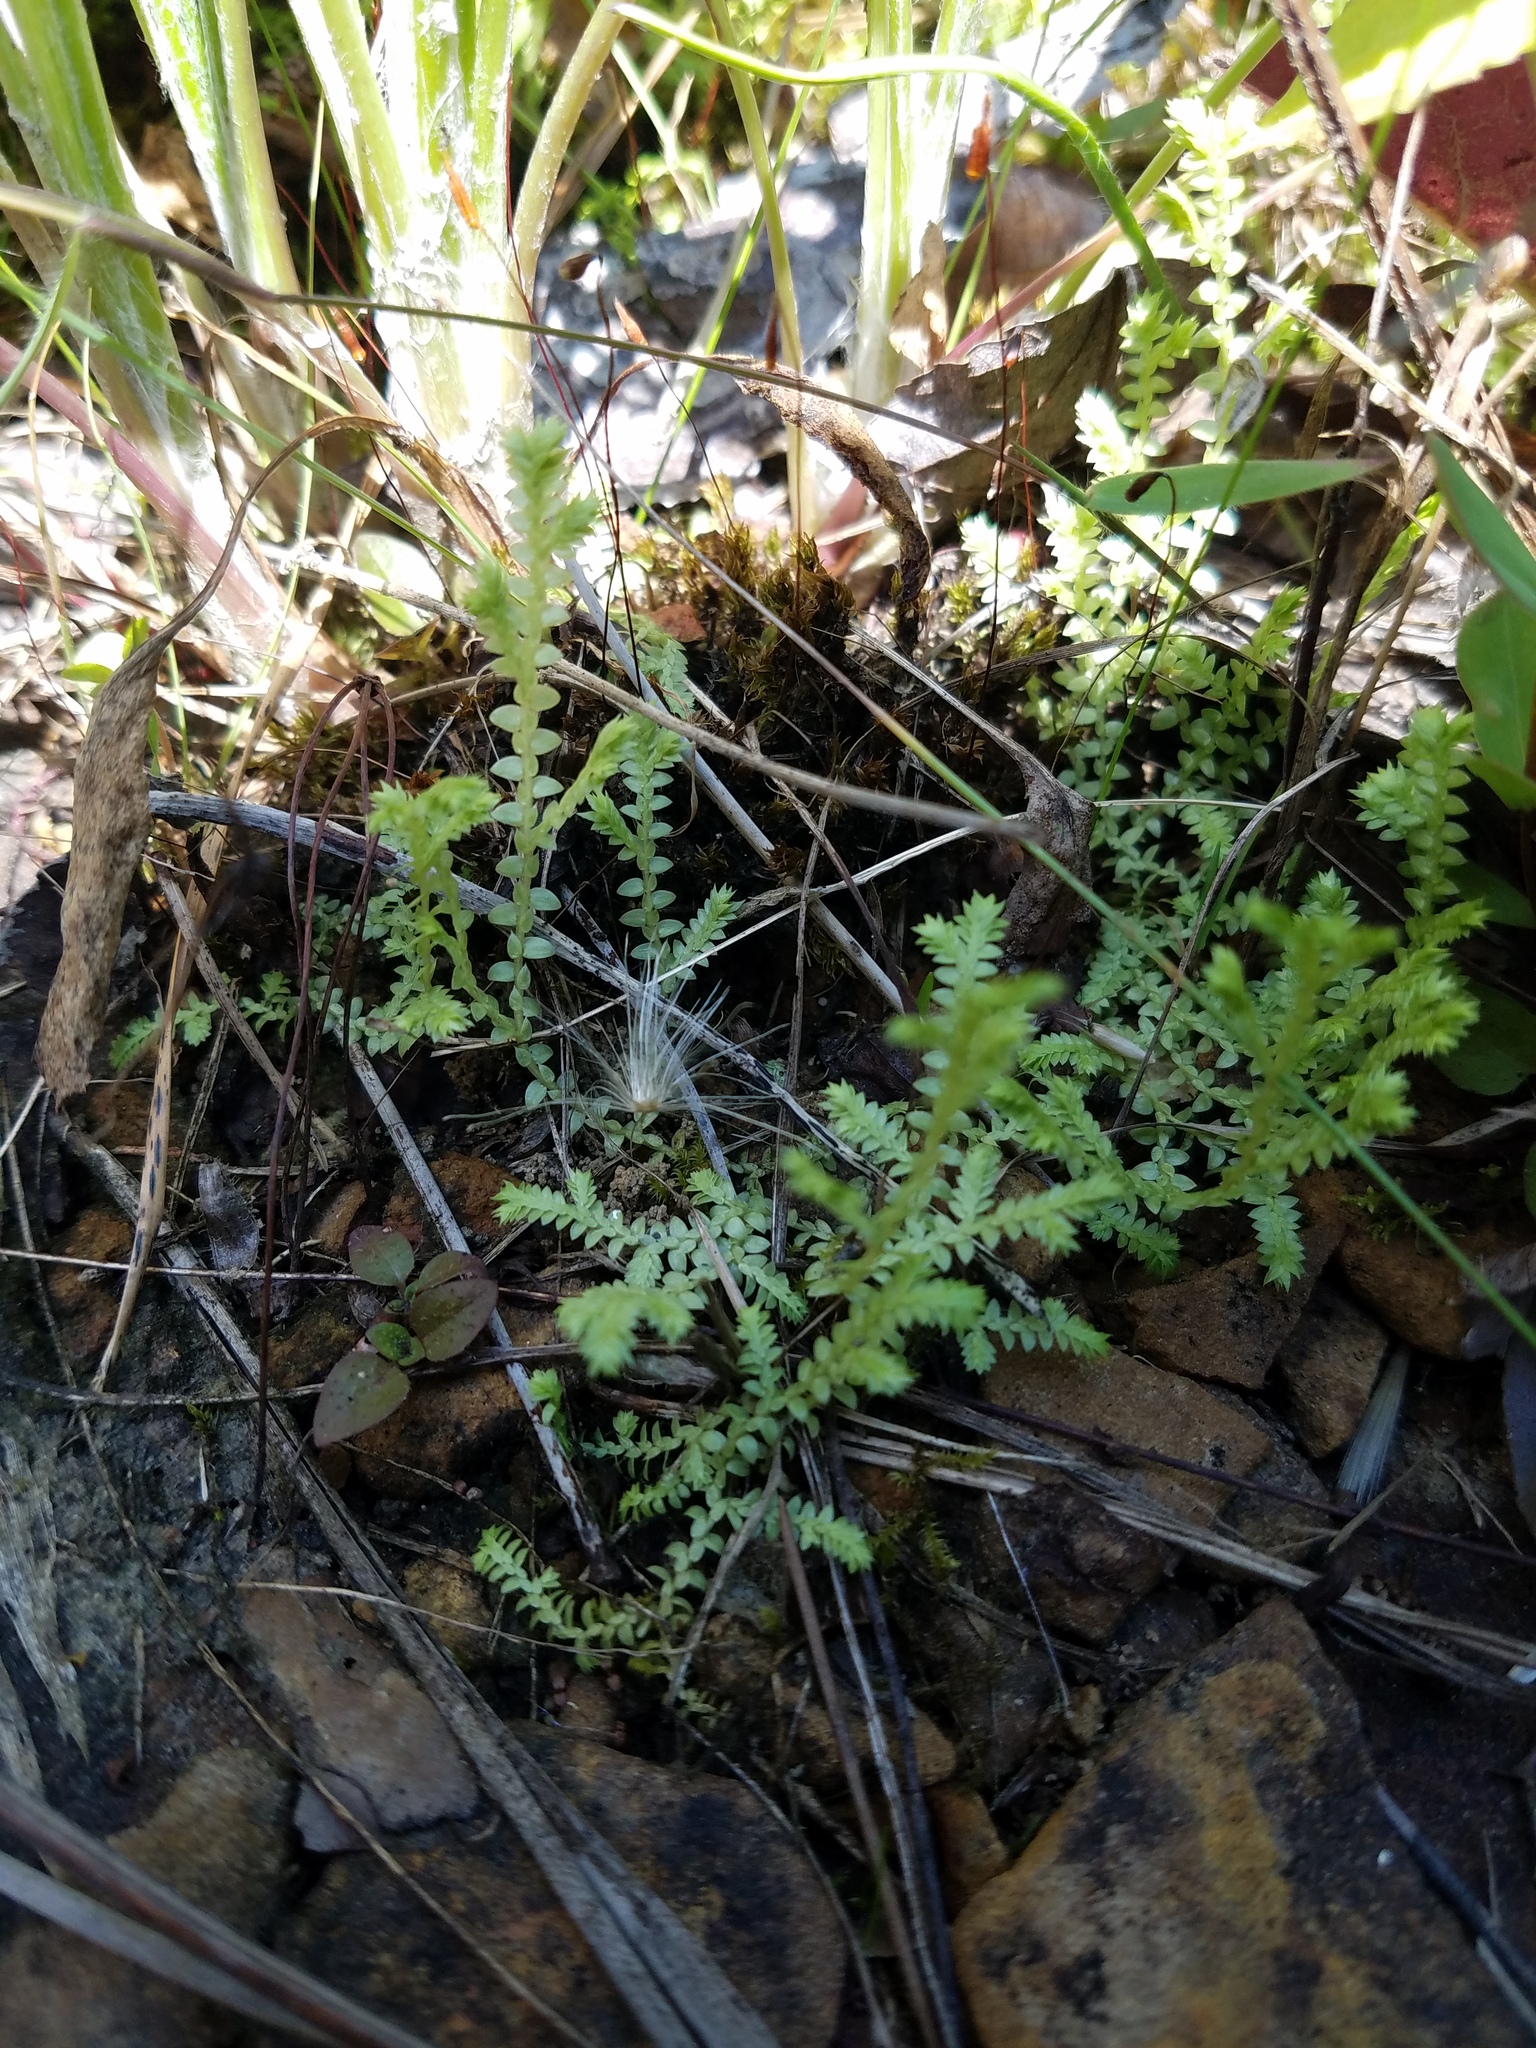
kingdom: Plantae
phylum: Tracheophyta
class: Lycopodiopsida
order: Selaginellales
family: Selaginellaceae
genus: Selaginella
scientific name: Selaginella apoda
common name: Creeping spikemoss
